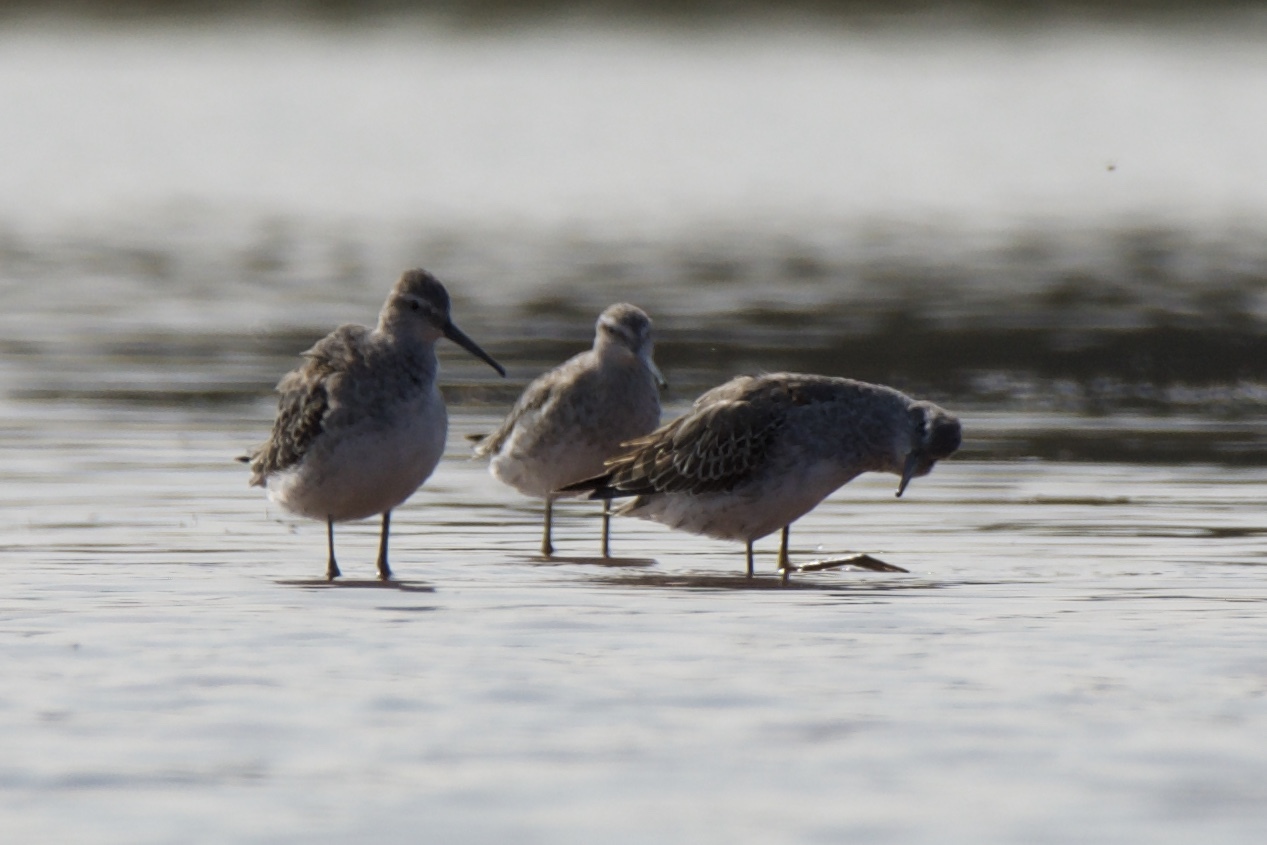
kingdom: Animalia
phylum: Chordata
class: Aves
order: Charadriiformes
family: Scolopacidae
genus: Calidris
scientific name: Calidris himantopus
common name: Stilt sandpiper
